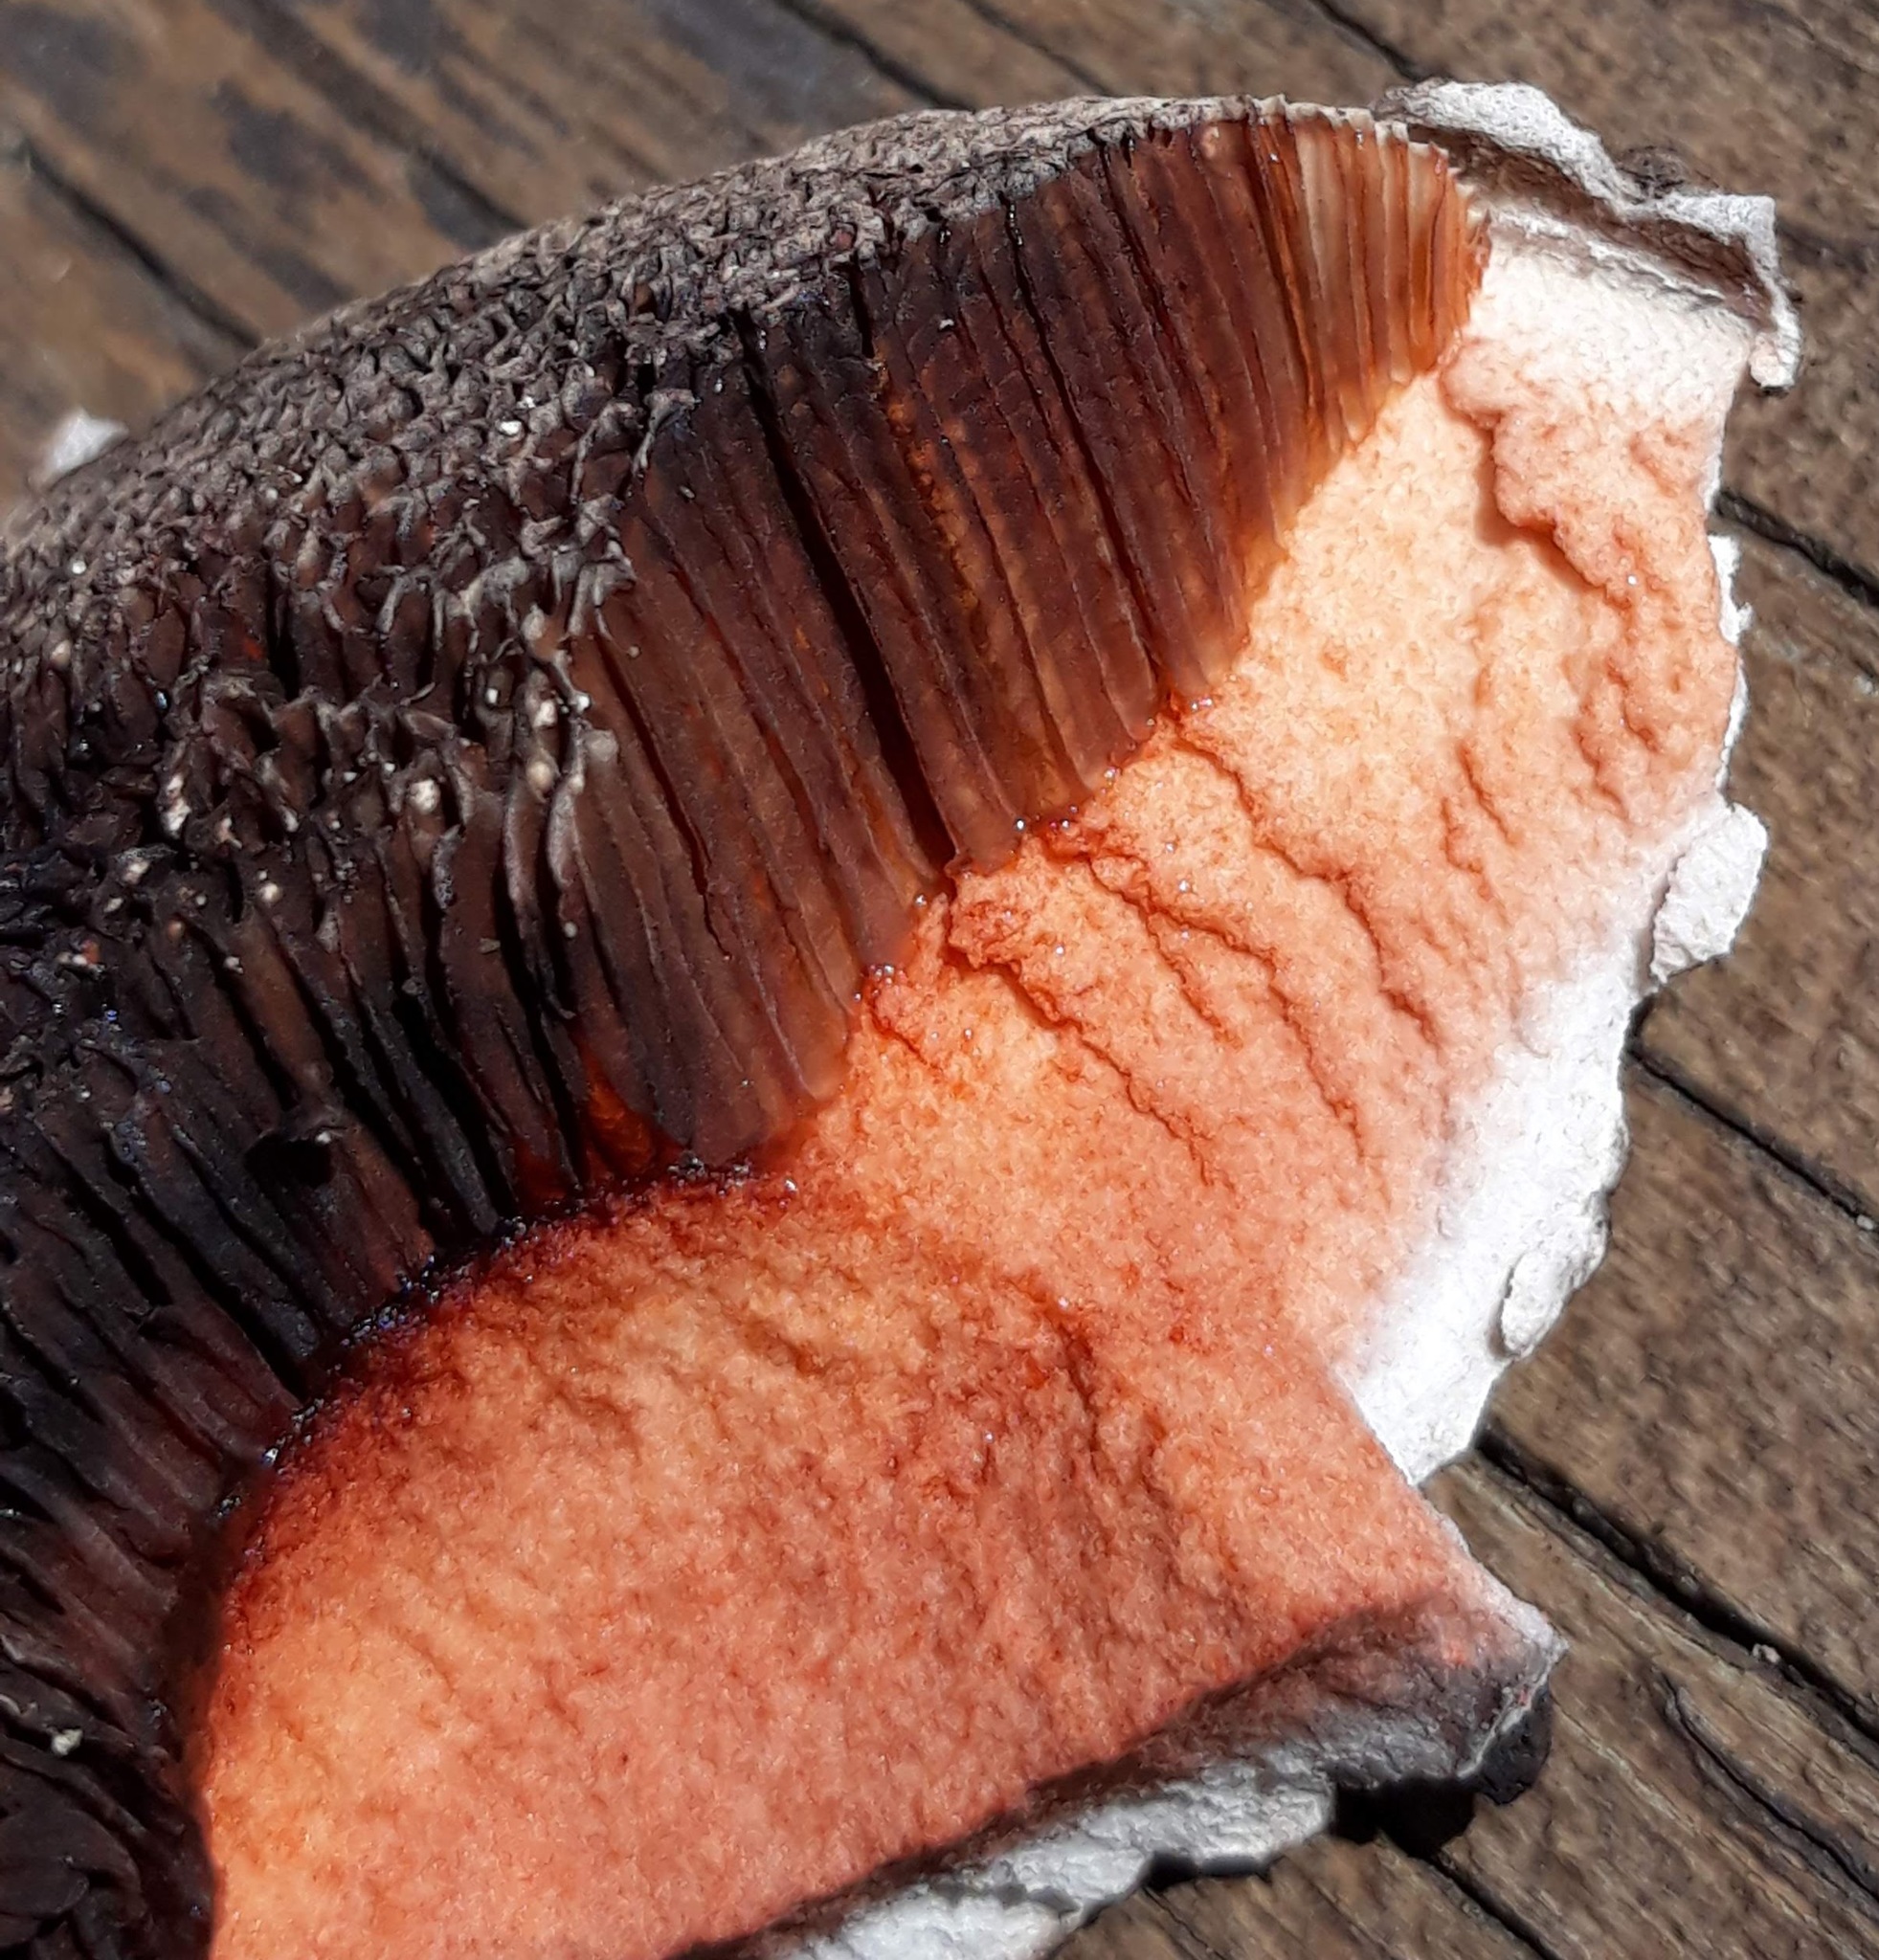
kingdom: Fungi
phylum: Basidiomycota
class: Agaricomycetes
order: Boletales
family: Boletaceae
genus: Strobilomyces
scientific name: Strobilomyces strobilaceus
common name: Old man of the woods
